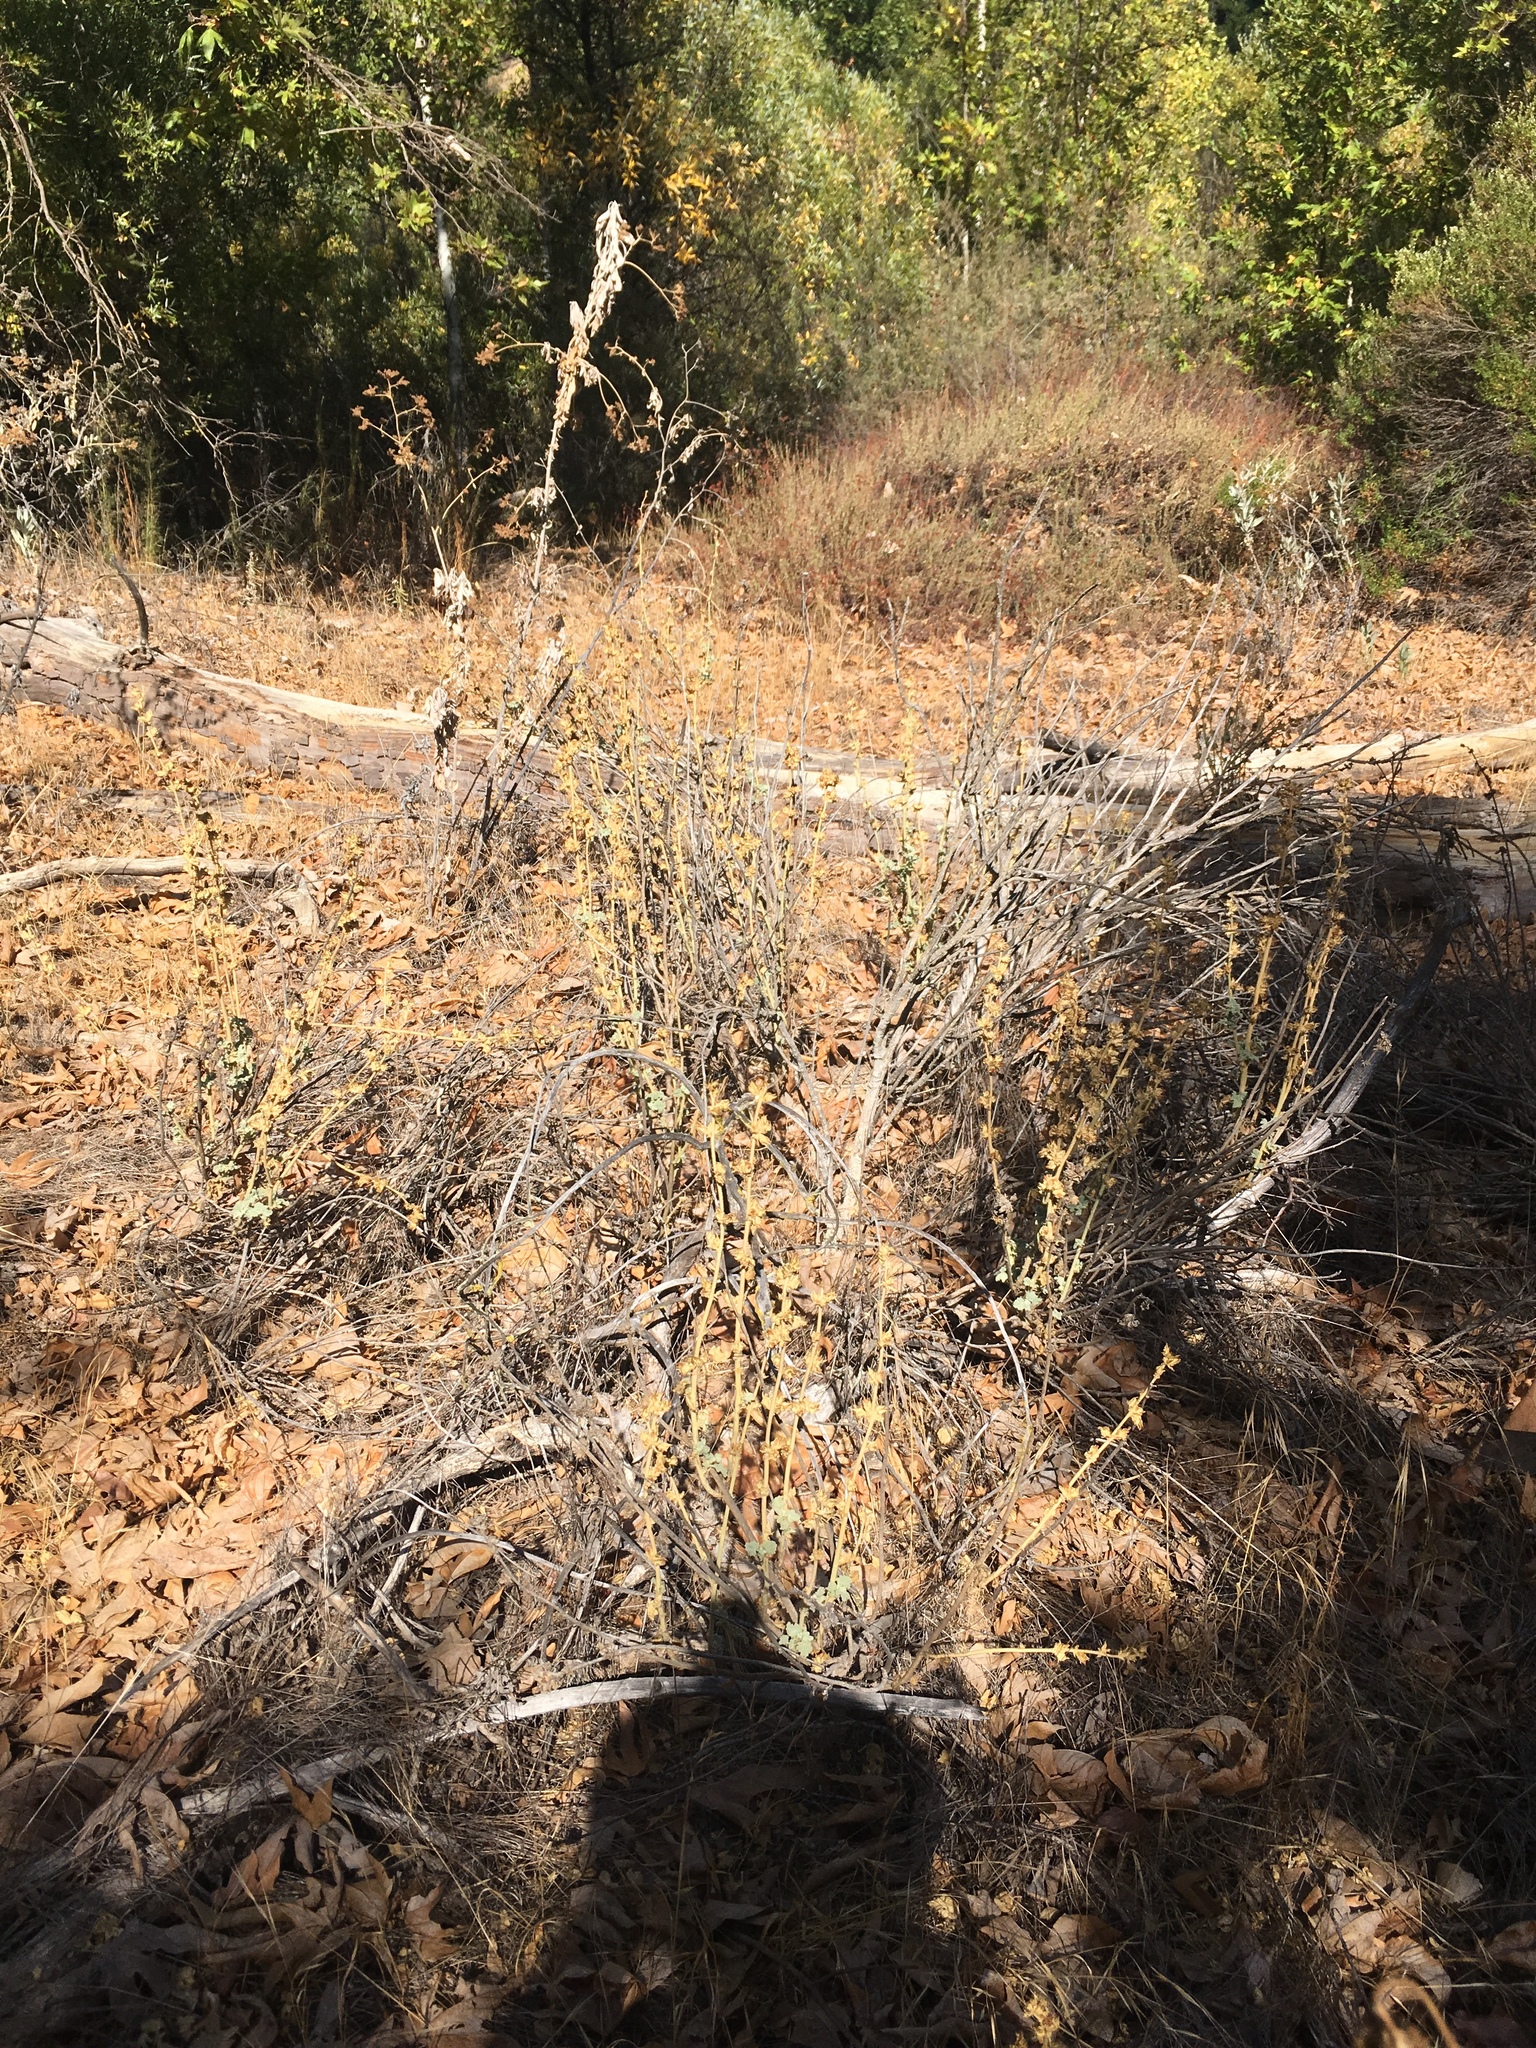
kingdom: Plantae
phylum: Tracheophyta
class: Magnoliopsida
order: Malvales
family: Malvaceae
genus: Malacothamnus
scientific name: Malacothamnus aboriginum
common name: Indian valley bush-mallow
